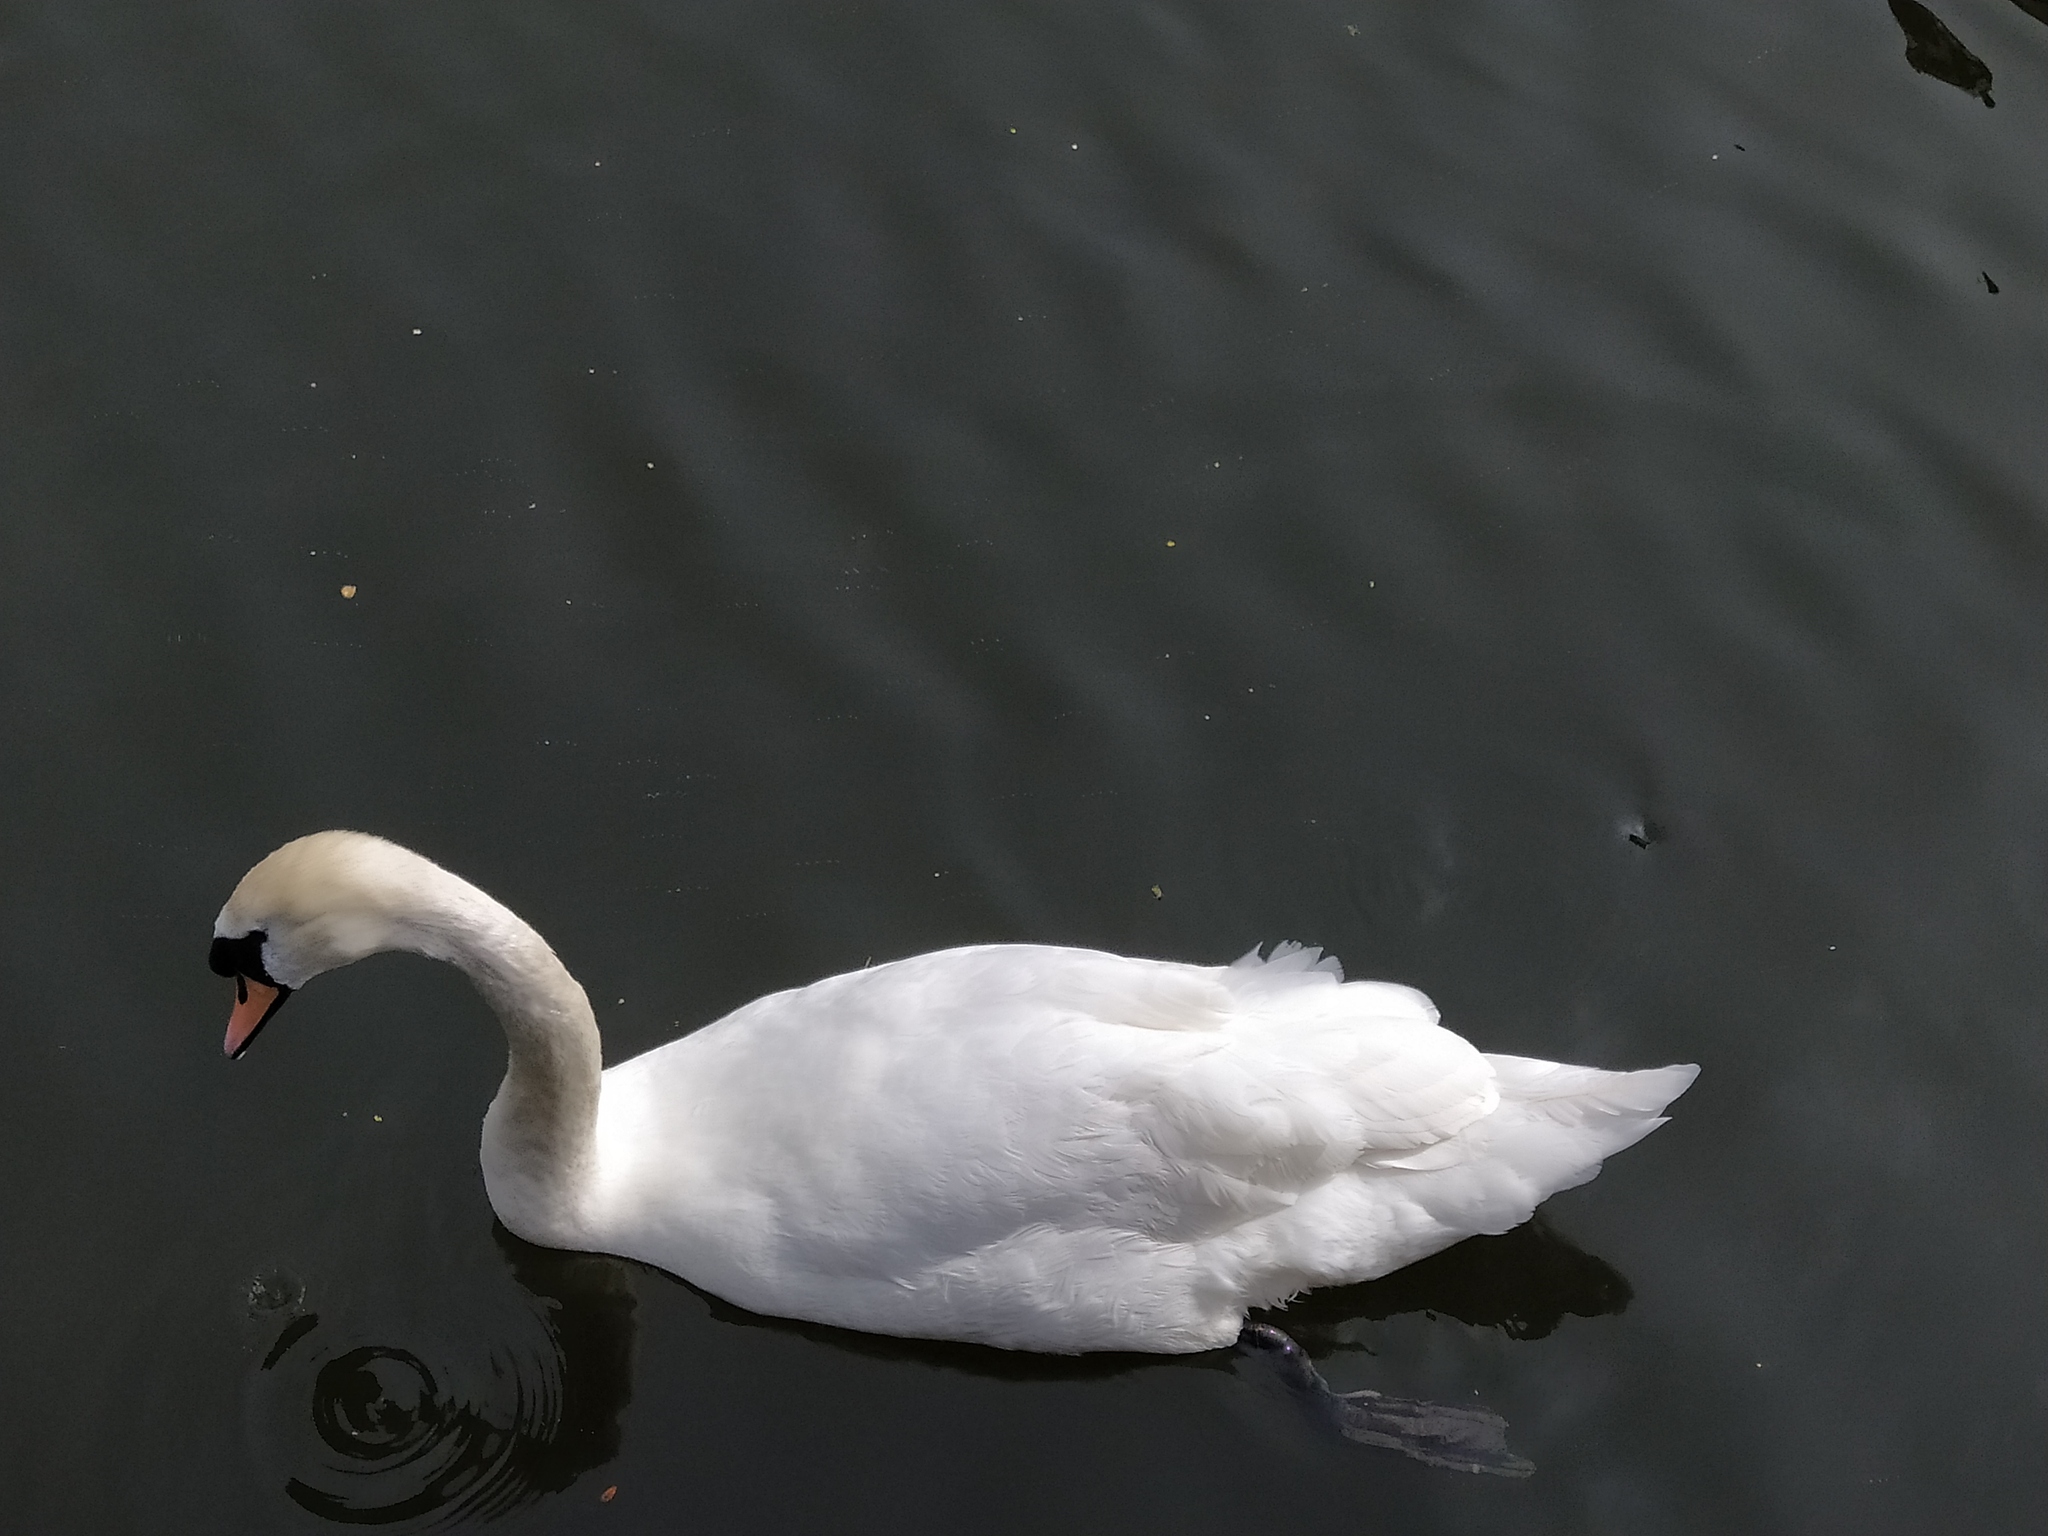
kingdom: Animalia
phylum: Chordata
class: Aves
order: Anseriformes
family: Anatidae
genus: Cygnus
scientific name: Cygnus olor
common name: Mute swan
